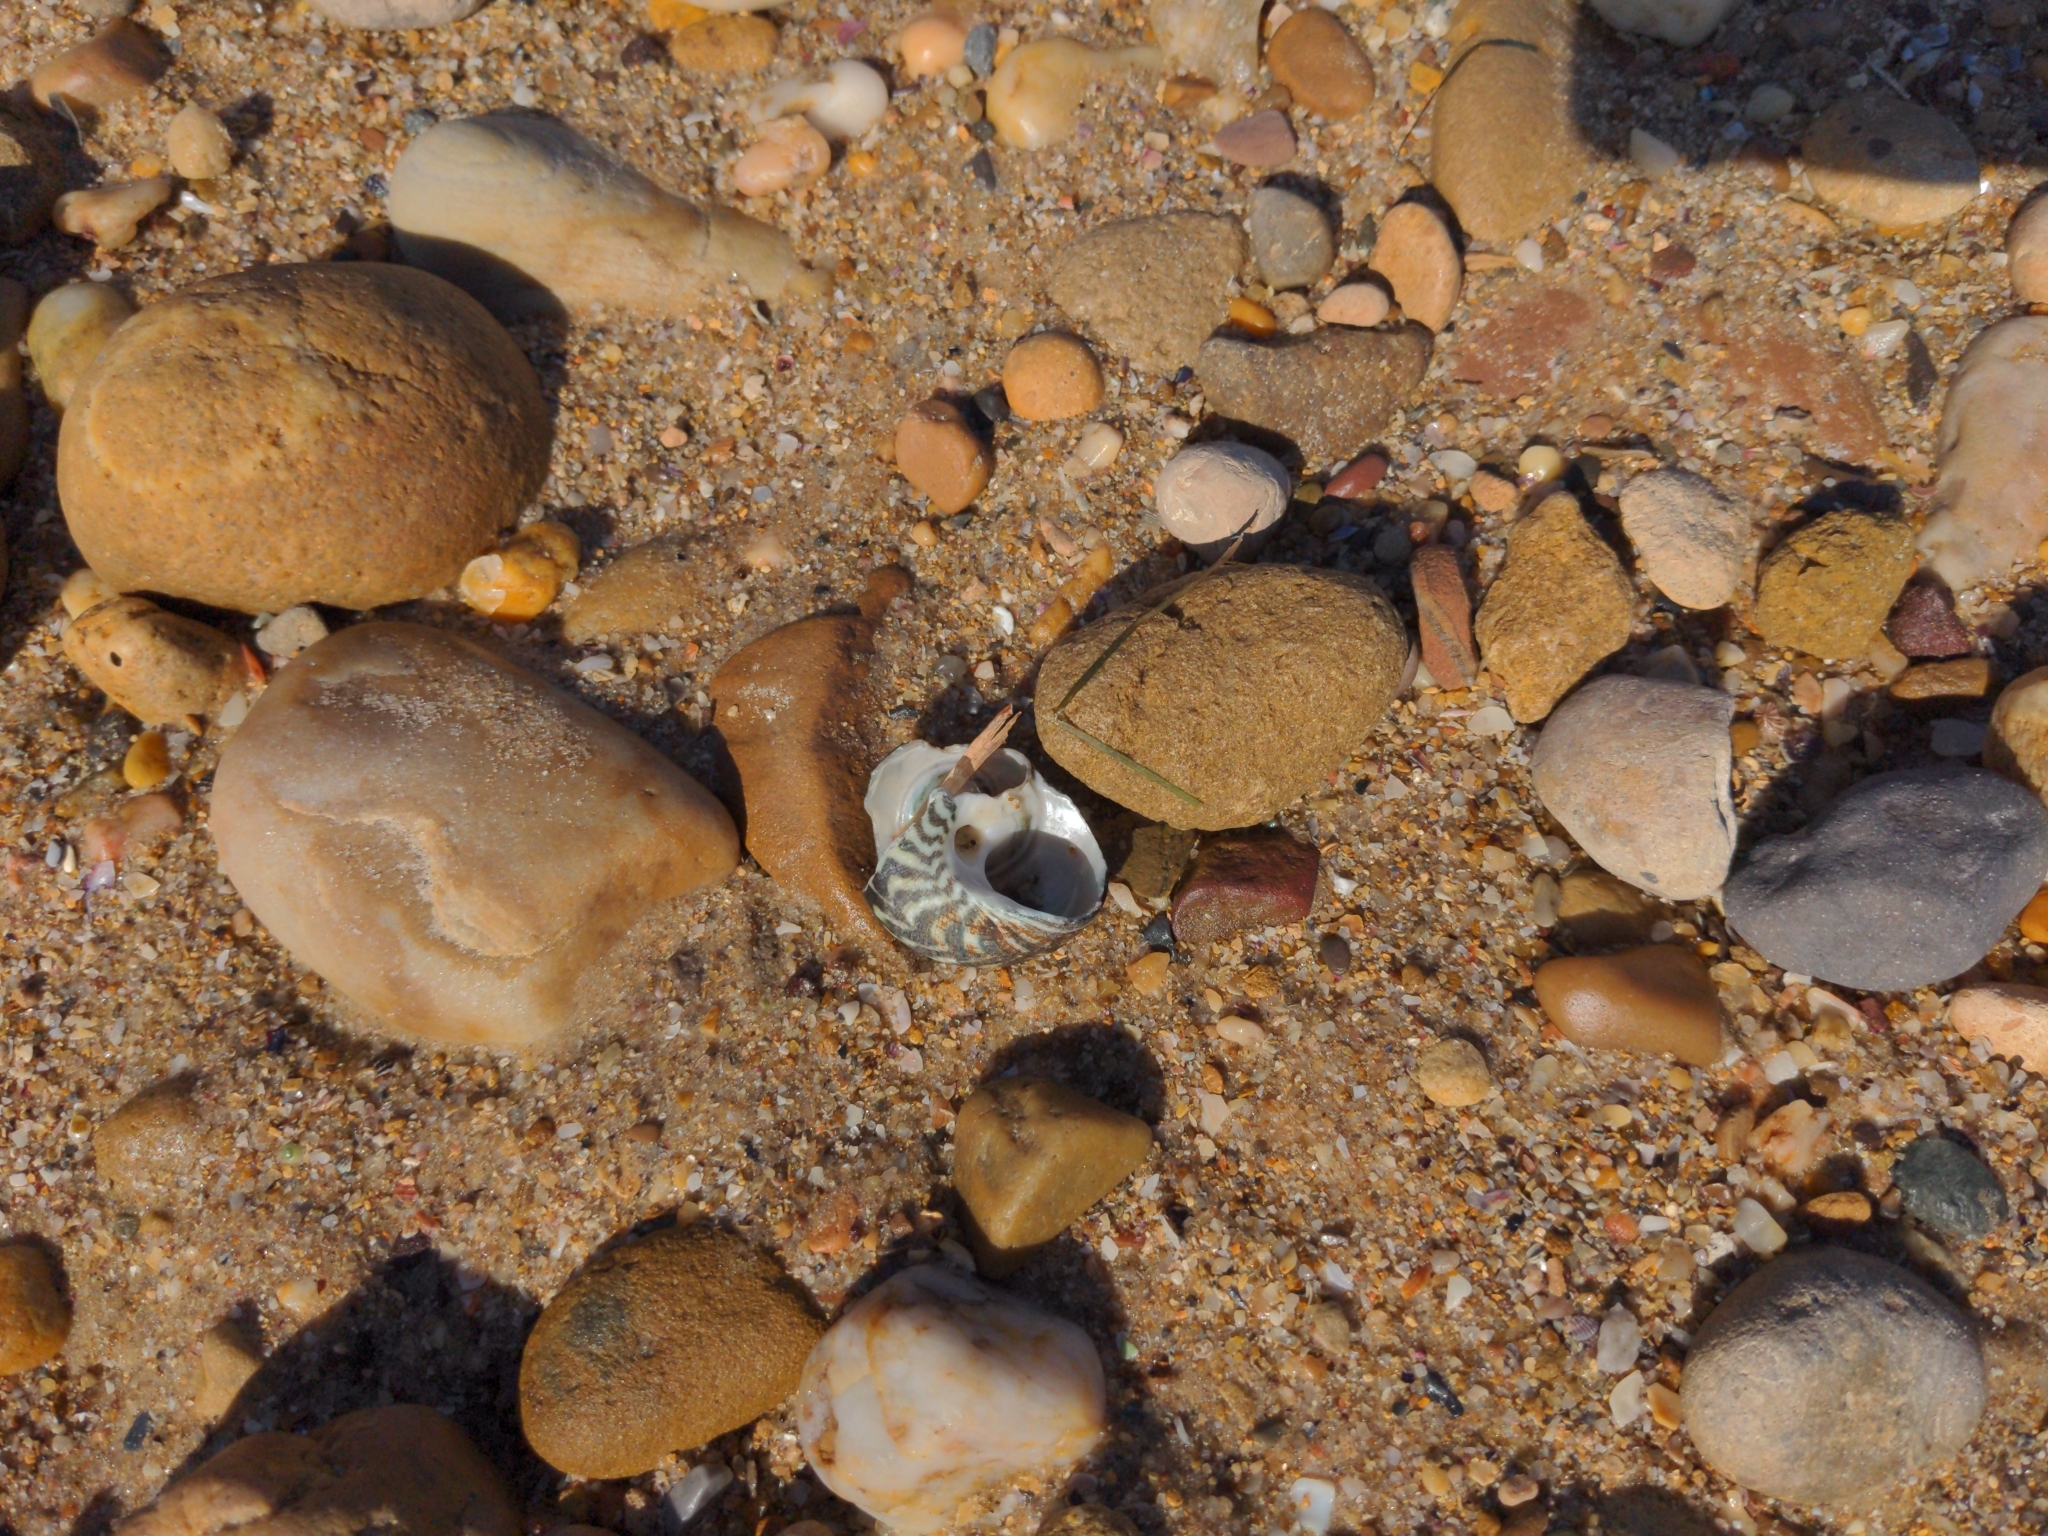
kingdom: Animalia
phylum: Mollusca
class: Gastropoda
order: Trochida
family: Turbinidae
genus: Lunella
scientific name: Lunella undulata
